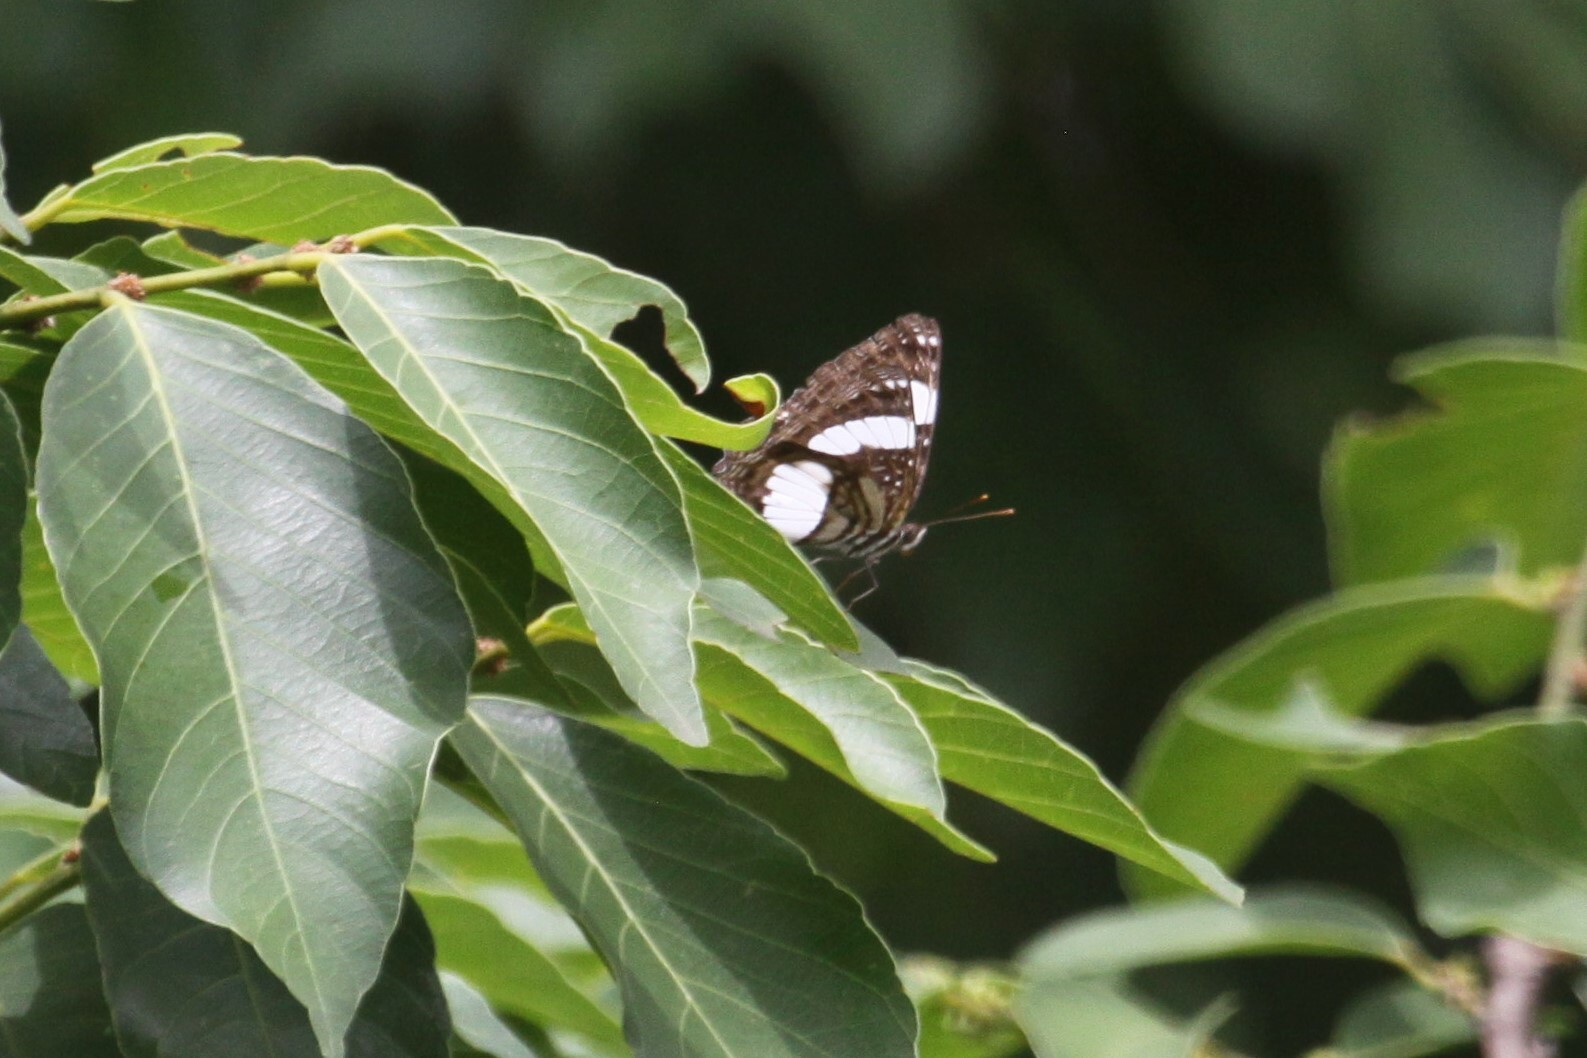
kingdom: Animalia
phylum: Arthropoda
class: Insecta
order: Lepidoptera
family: Nymphalidae
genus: Neptis
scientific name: Neptis laeta
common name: Common barred sailor
